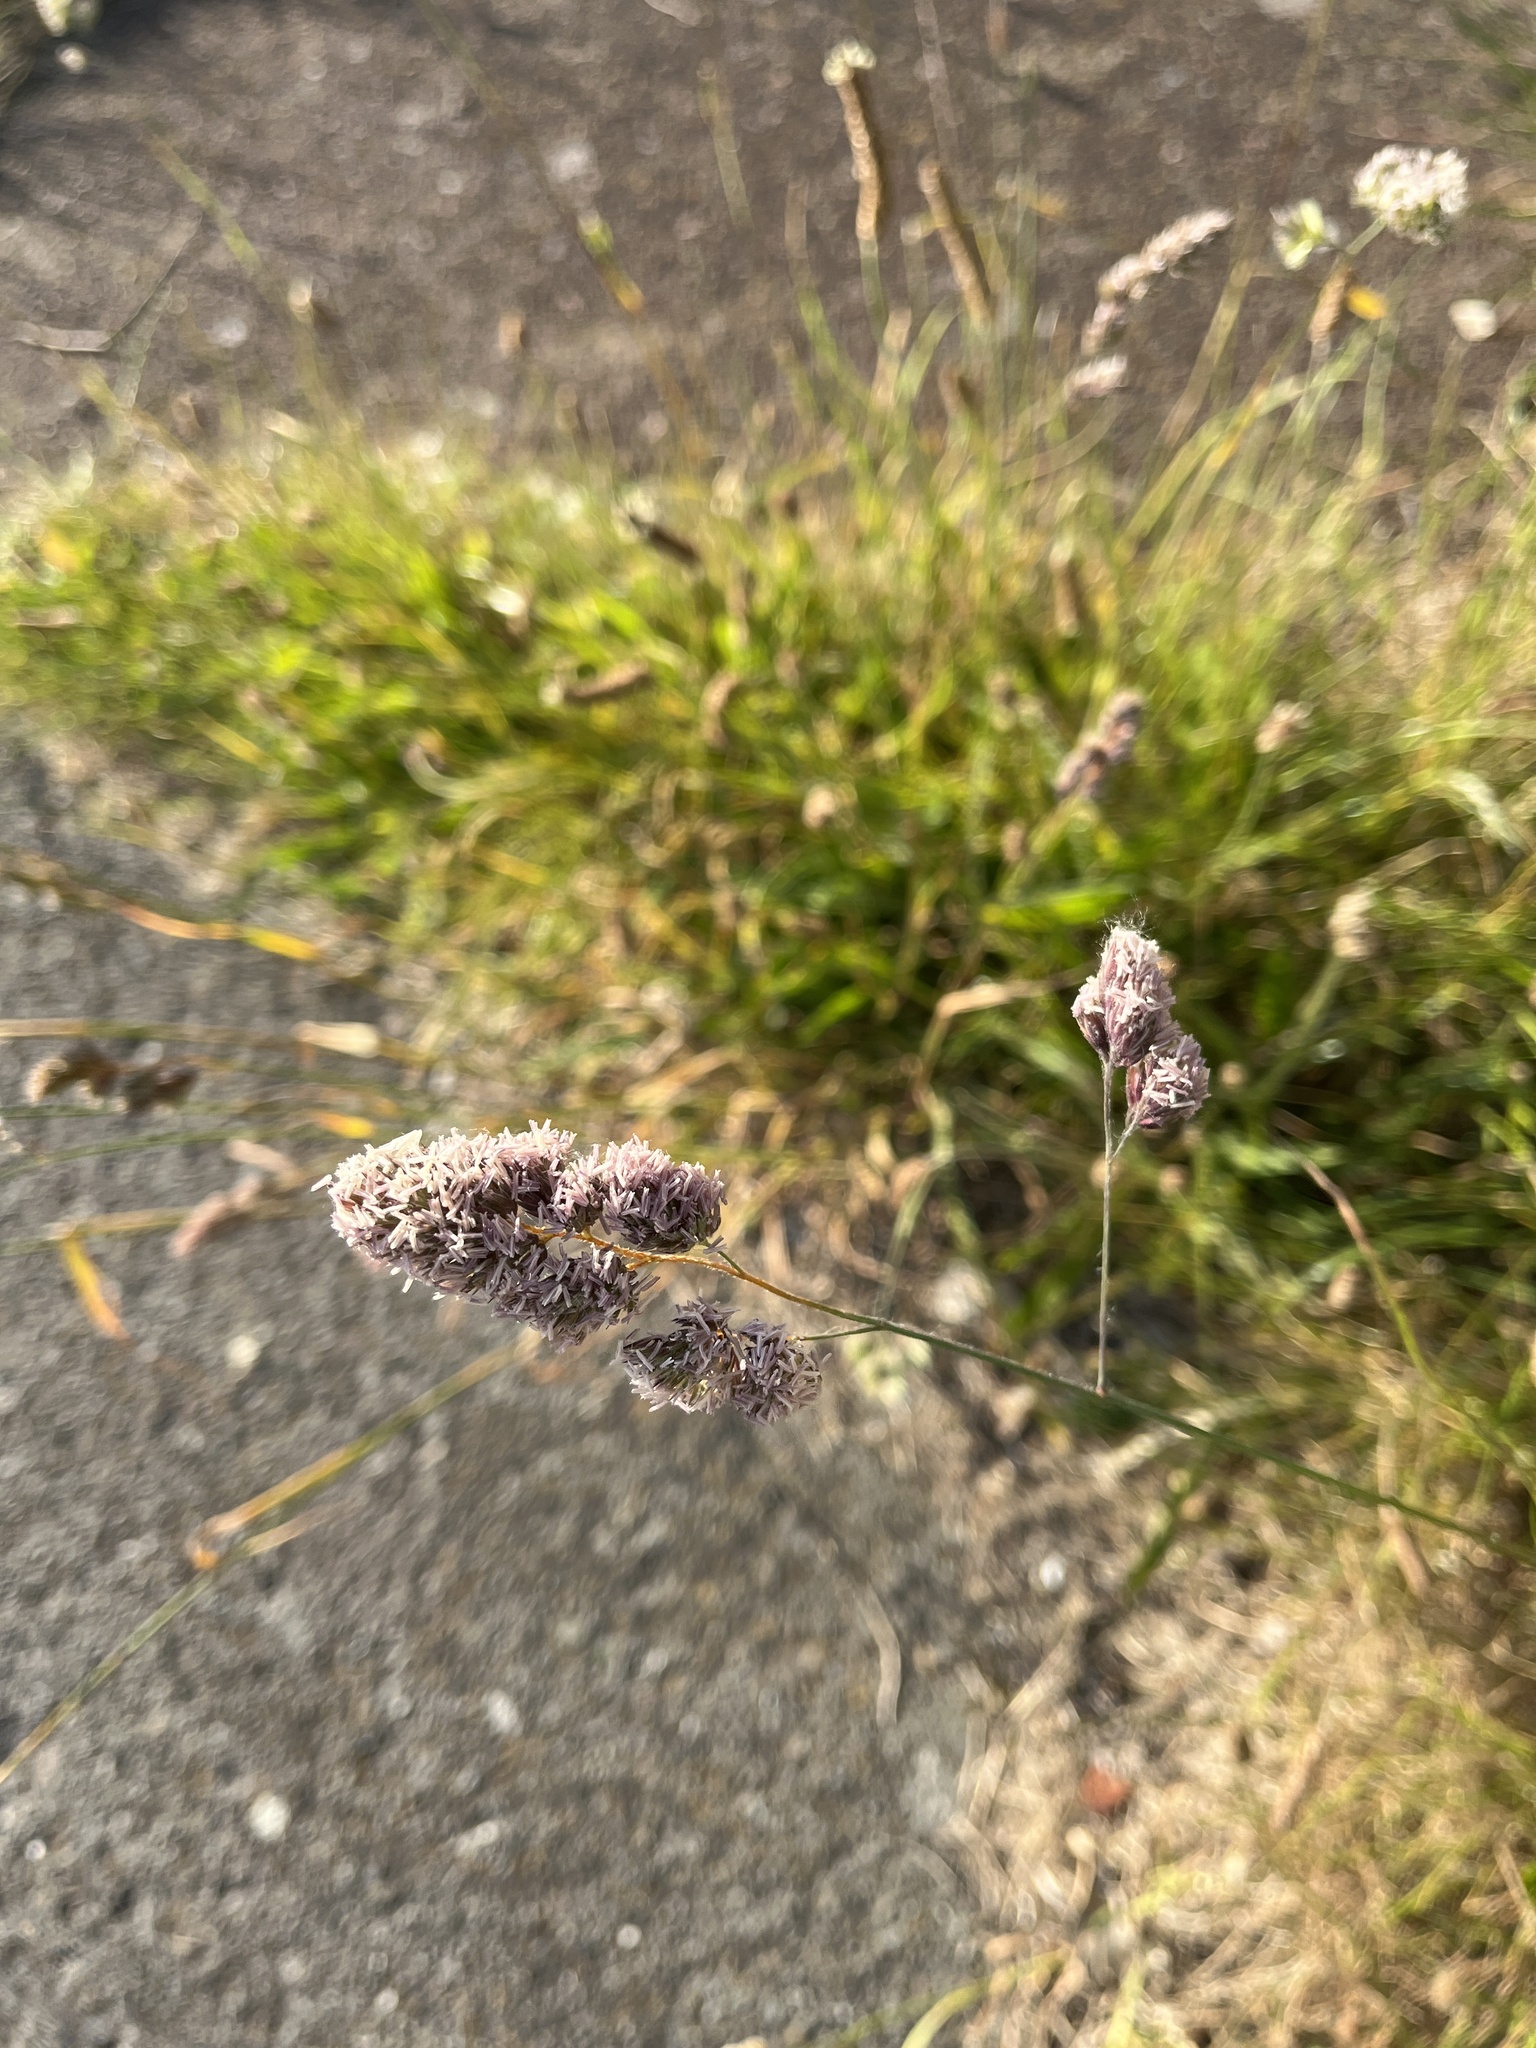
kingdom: Plantae
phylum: Tracheophyta
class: Liliopsida
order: Poales
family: Poaceae
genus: Dactylis
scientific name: Dactylis glomerata
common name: Orchardgrass
